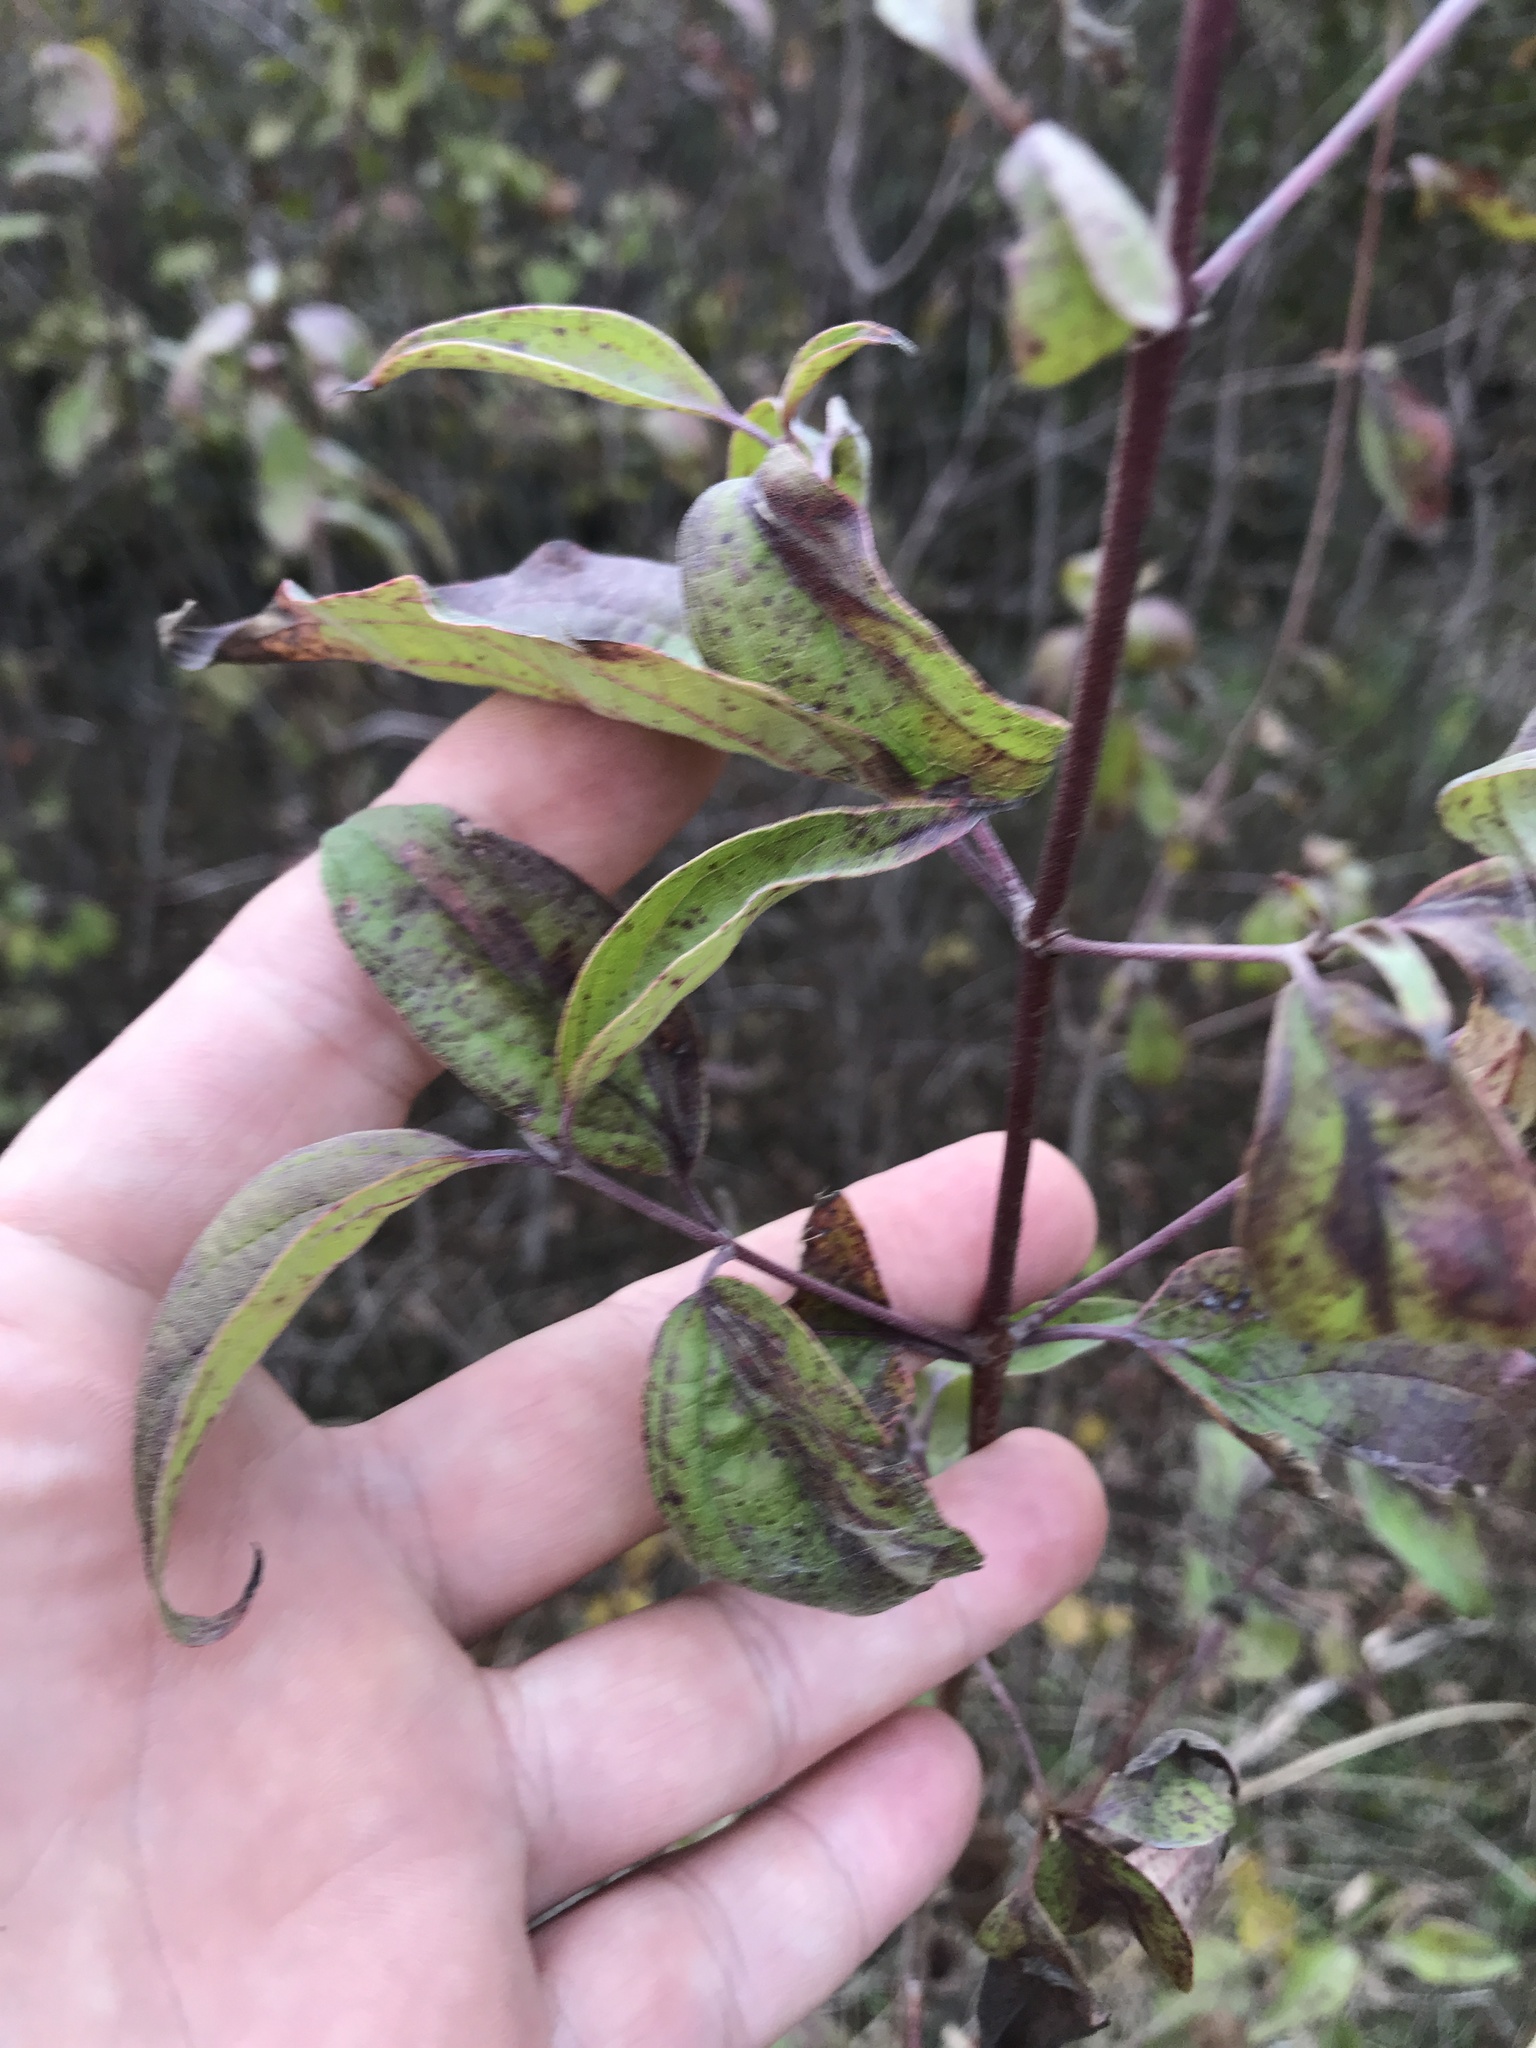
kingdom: Plantae
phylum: Tracheophyta
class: Magnoliopsida
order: Cornales
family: Cornaceae
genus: Cornus
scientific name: Cornus drummondii
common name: Rough-leaf dogwood
